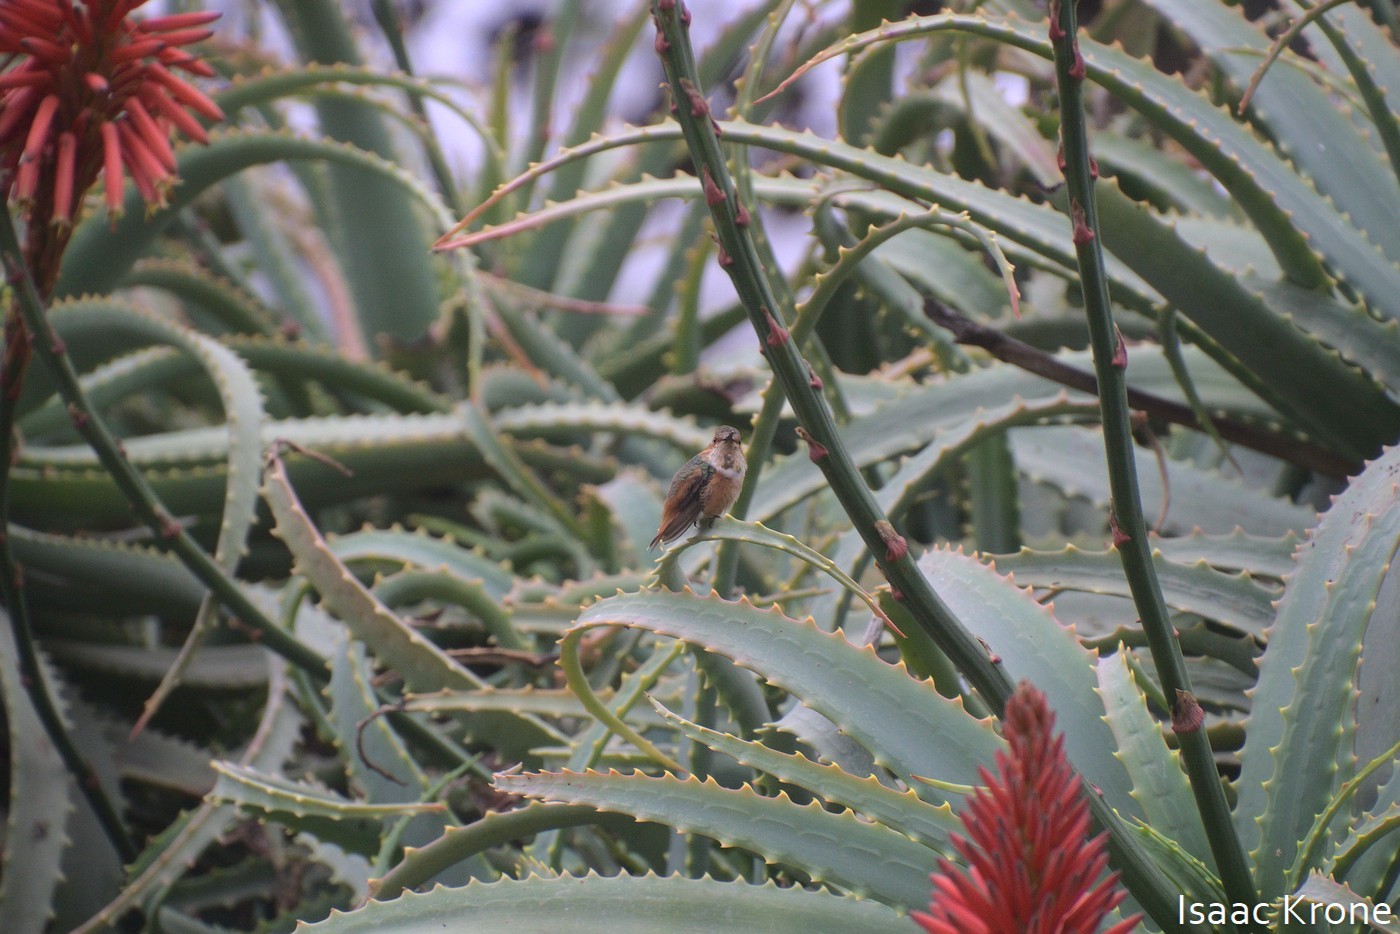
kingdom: Animalia
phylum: Chordata
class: Aves
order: Apodiformes
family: Trochilidae
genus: Selasphorus
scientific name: Selasphorus sasin
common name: Allen's hummingbird
